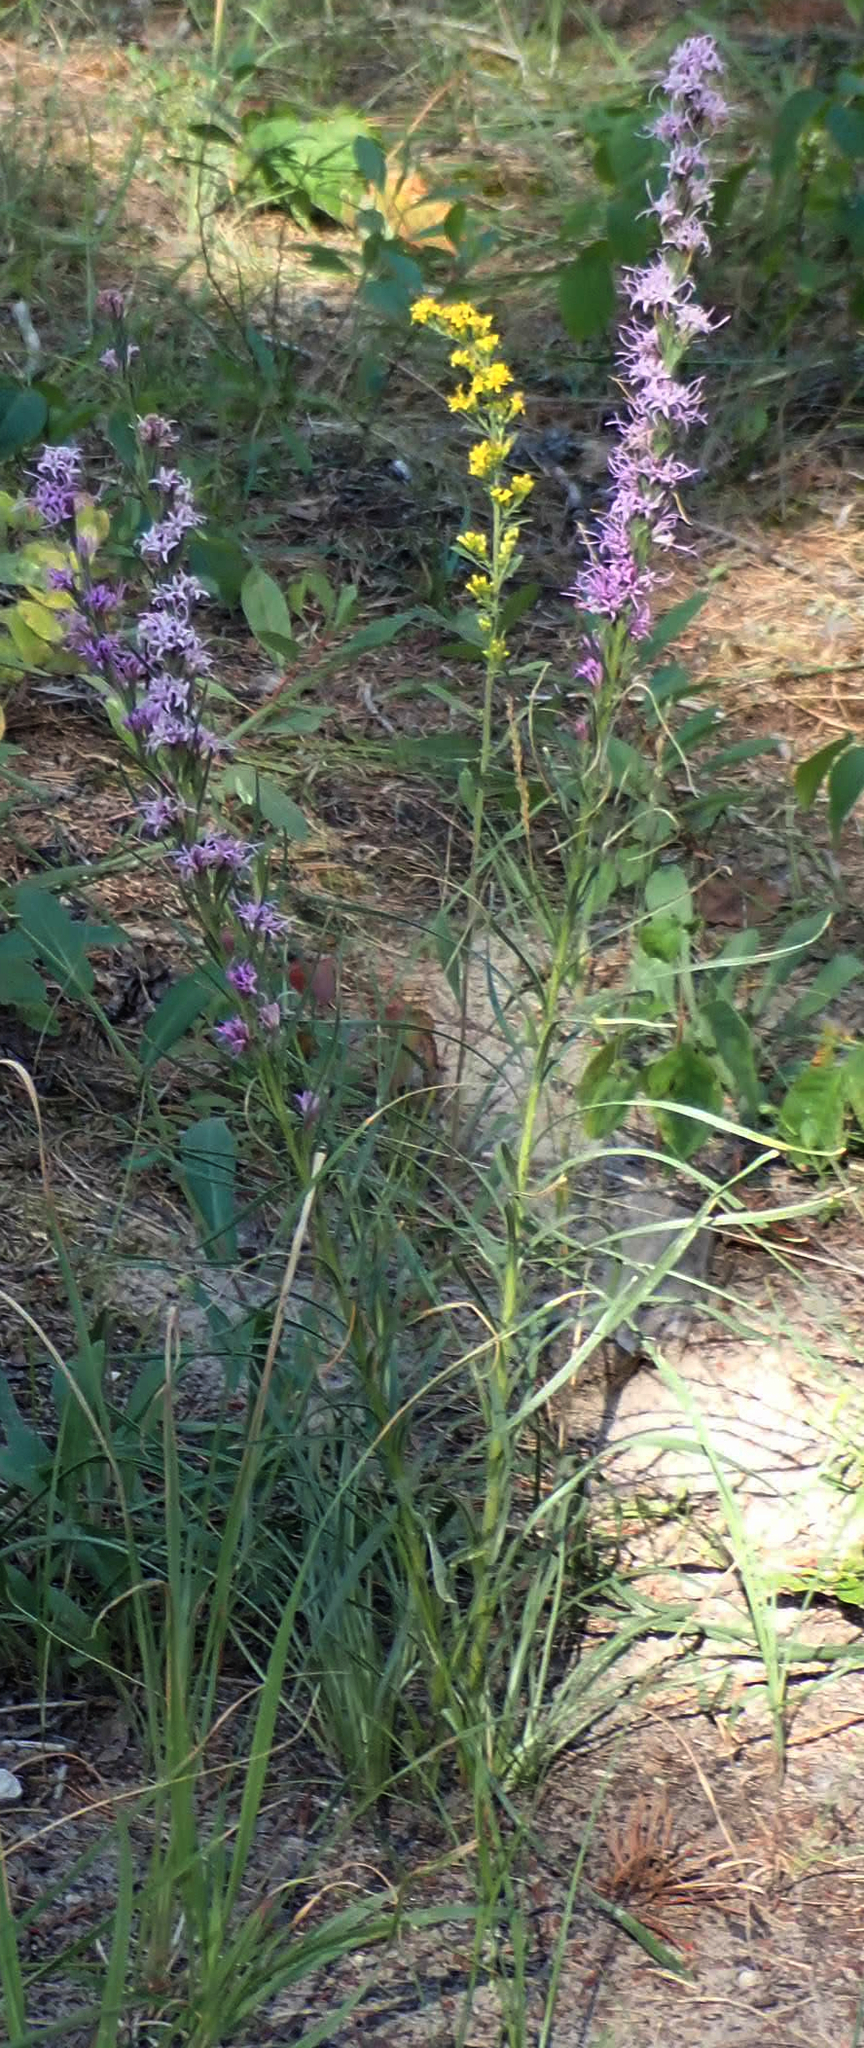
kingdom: Plantae
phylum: Tracheophyta
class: Magnoliopsida
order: Asterales
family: Asteraceae
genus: Liatris
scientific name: Liatris punctata
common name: Dotted gayfeather
